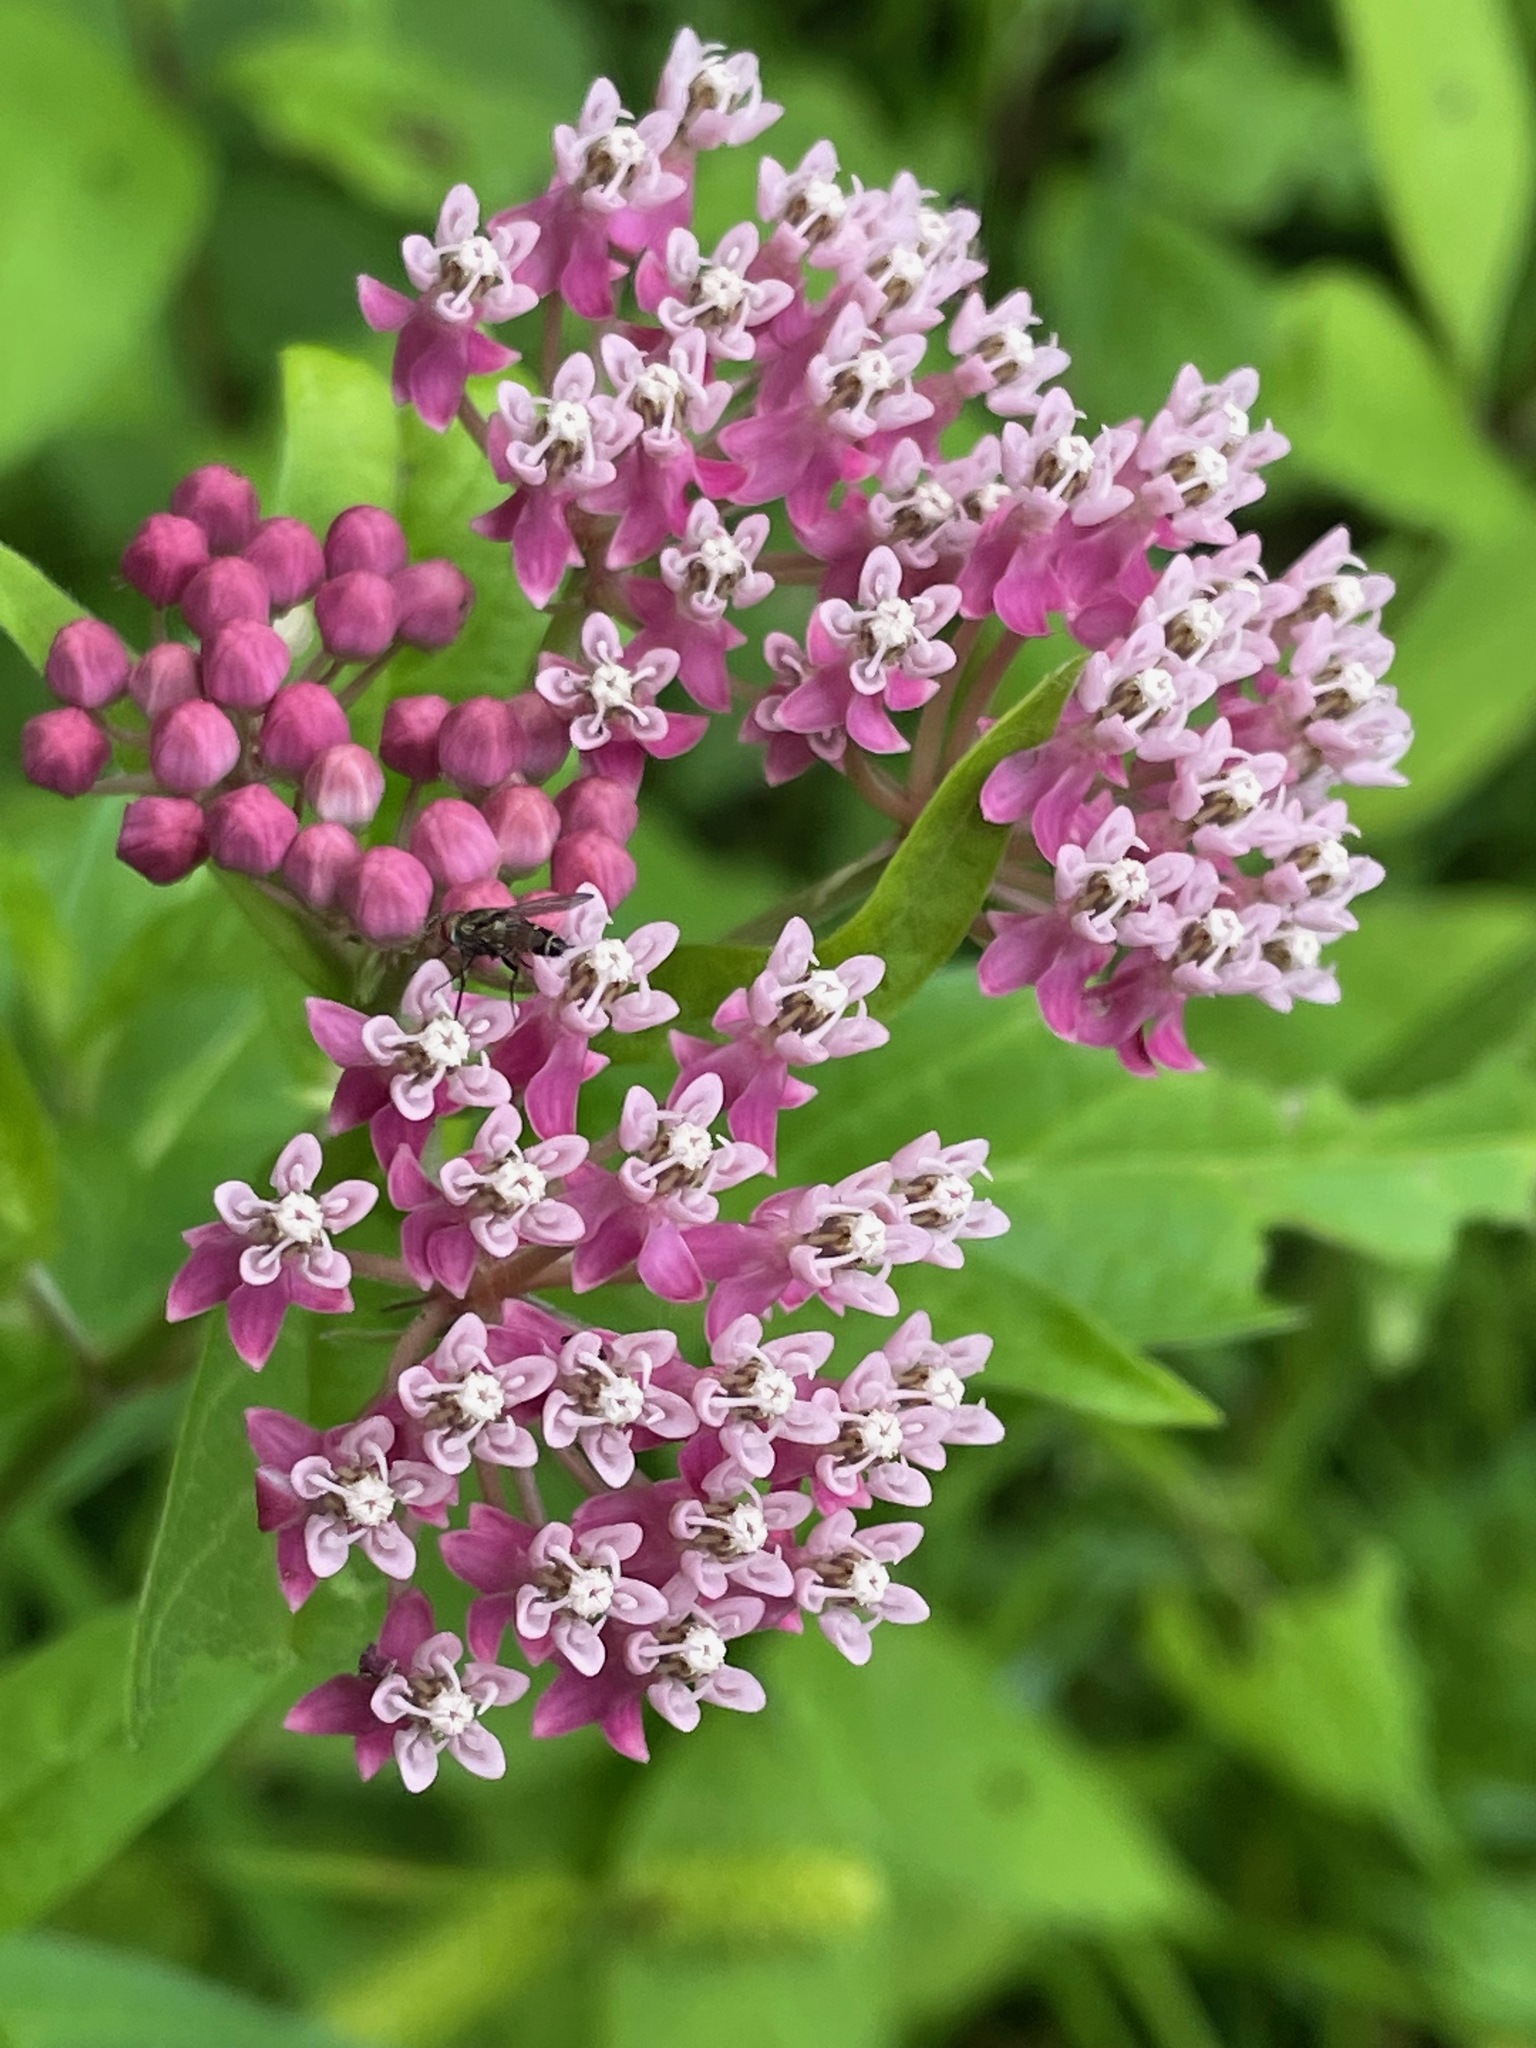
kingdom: Plantae
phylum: Tracheophyta
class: Magnoliopsida
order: Gentianales
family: Apocynaceae
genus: Asclepias
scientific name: Asclepias incarnata
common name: Swamp milkweed
